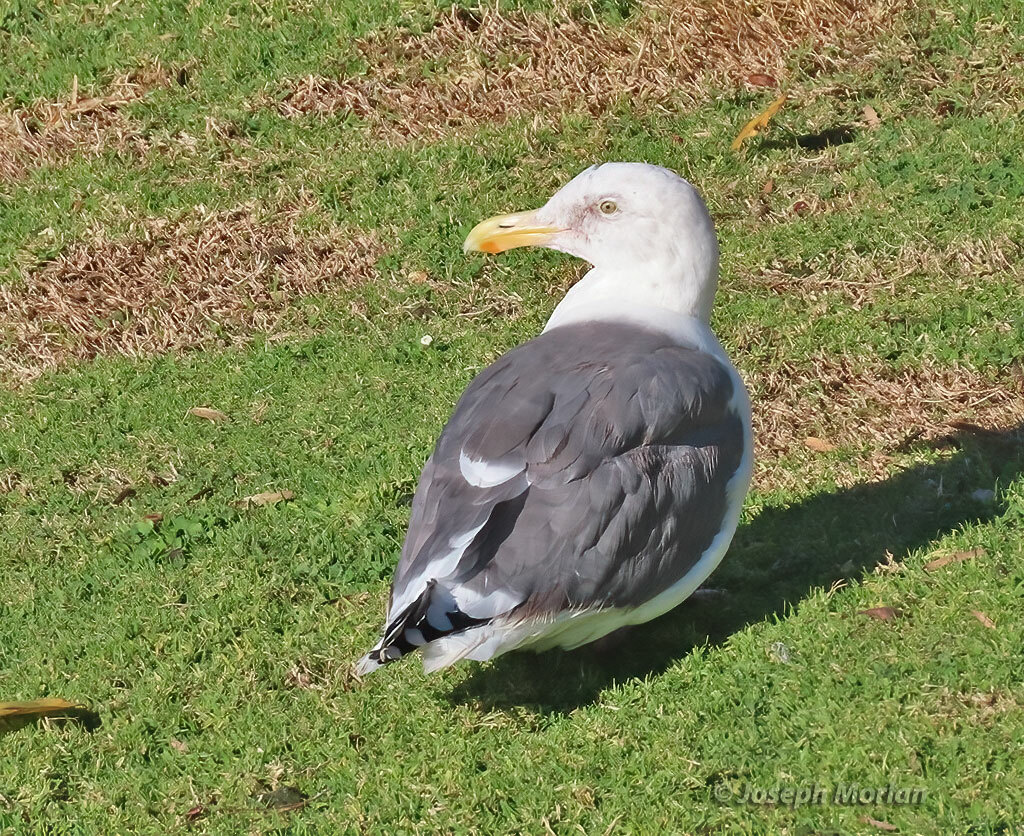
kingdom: Animalia
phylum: Chordata
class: Aves
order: Charadriiformes
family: Laridae
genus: Larus
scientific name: Larus occidentalis
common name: Western gull
